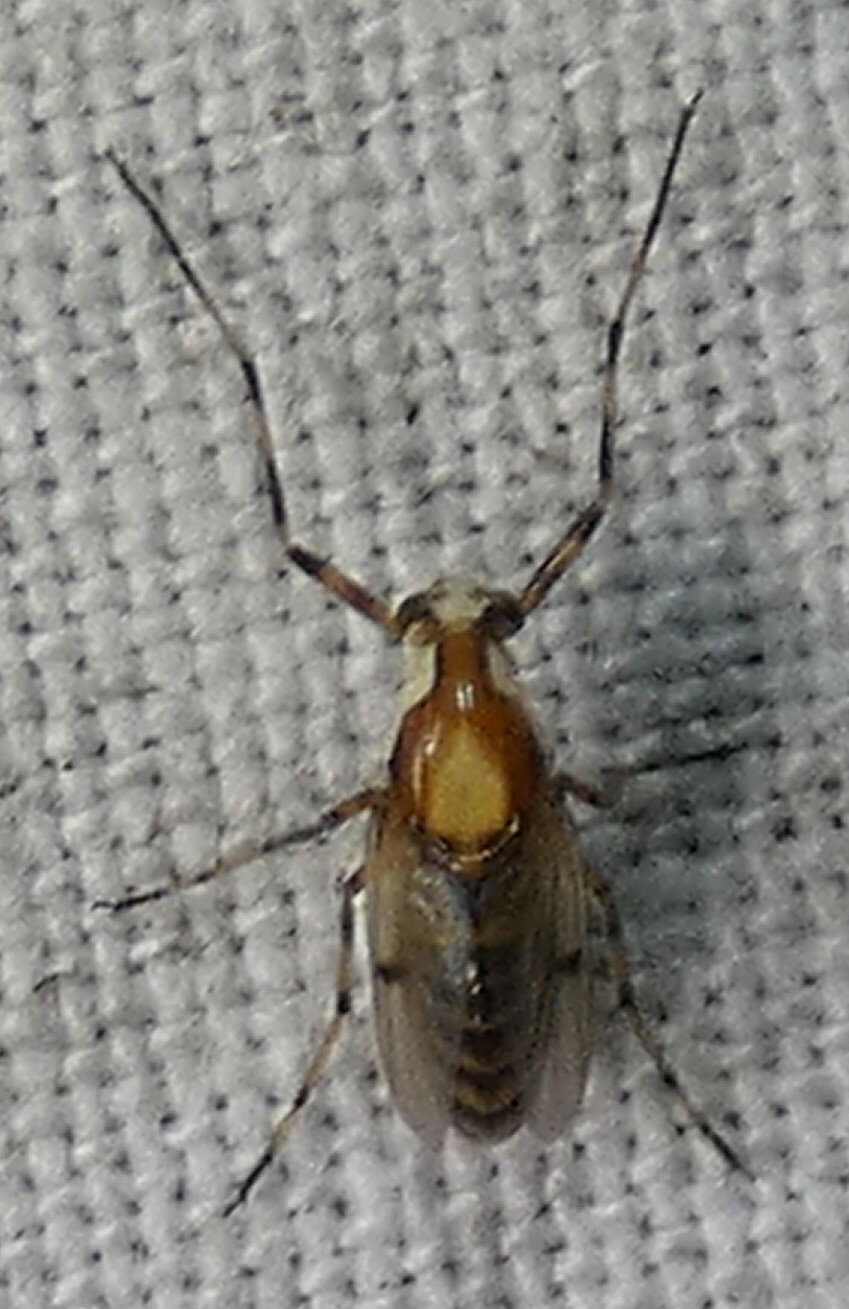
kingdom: Animalia
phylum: Arthropoda
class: Insecta
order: Diptera
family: Chironomidae
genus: Coelotanypus
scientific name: Coelotanypus tricolor
